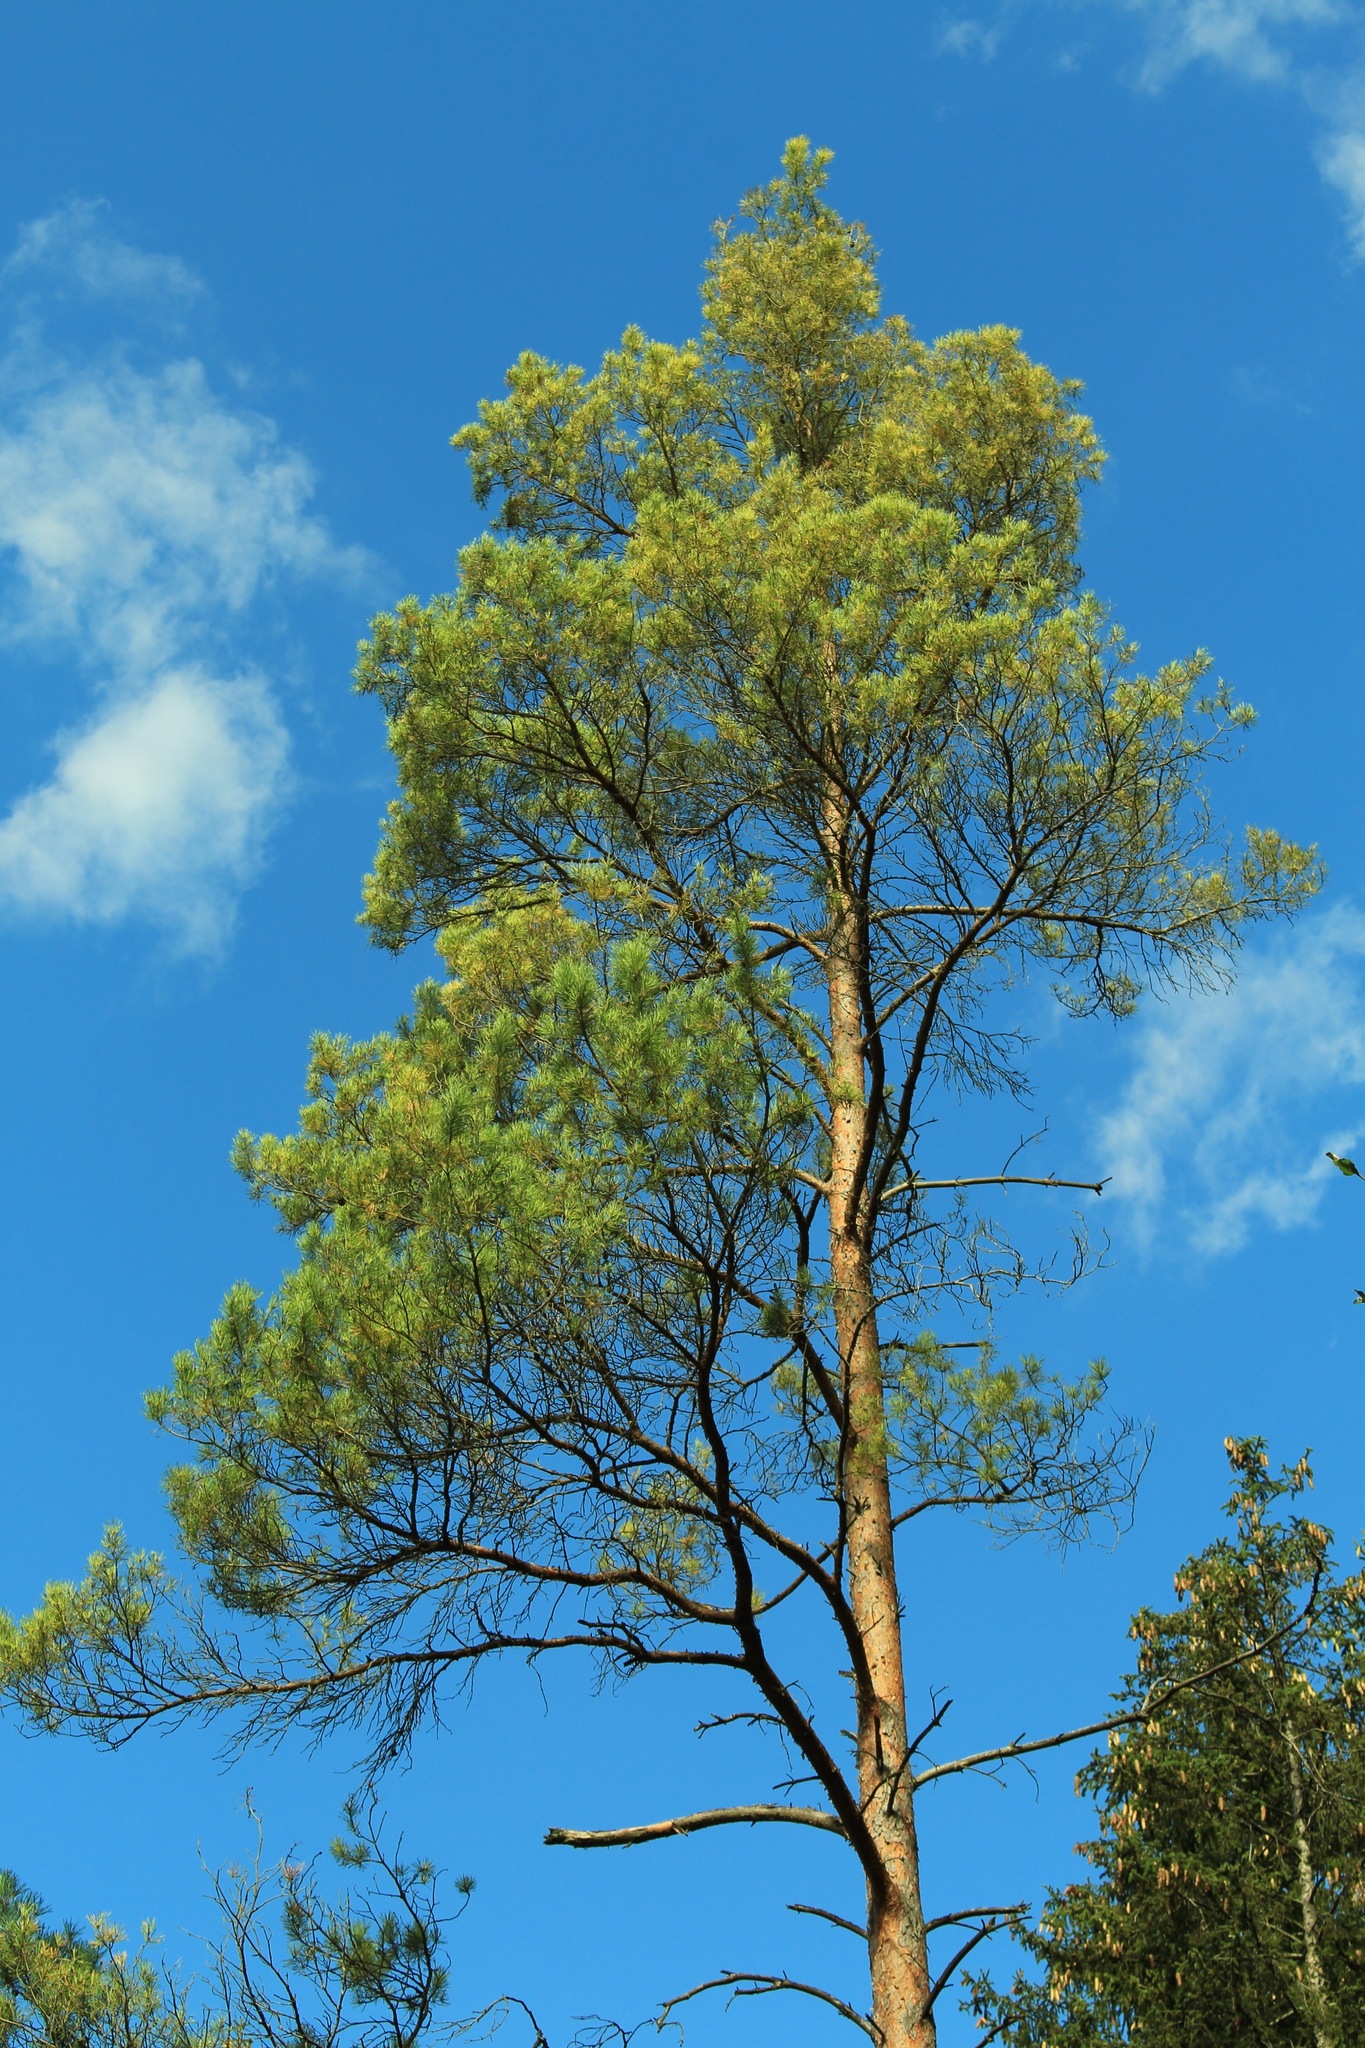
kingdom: Plantae
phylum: Tracheophyta
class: Pinopsida
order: Pinales
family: Pinaceae
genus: Pinus
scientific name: Pinus sylvestris
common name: Scots pine
